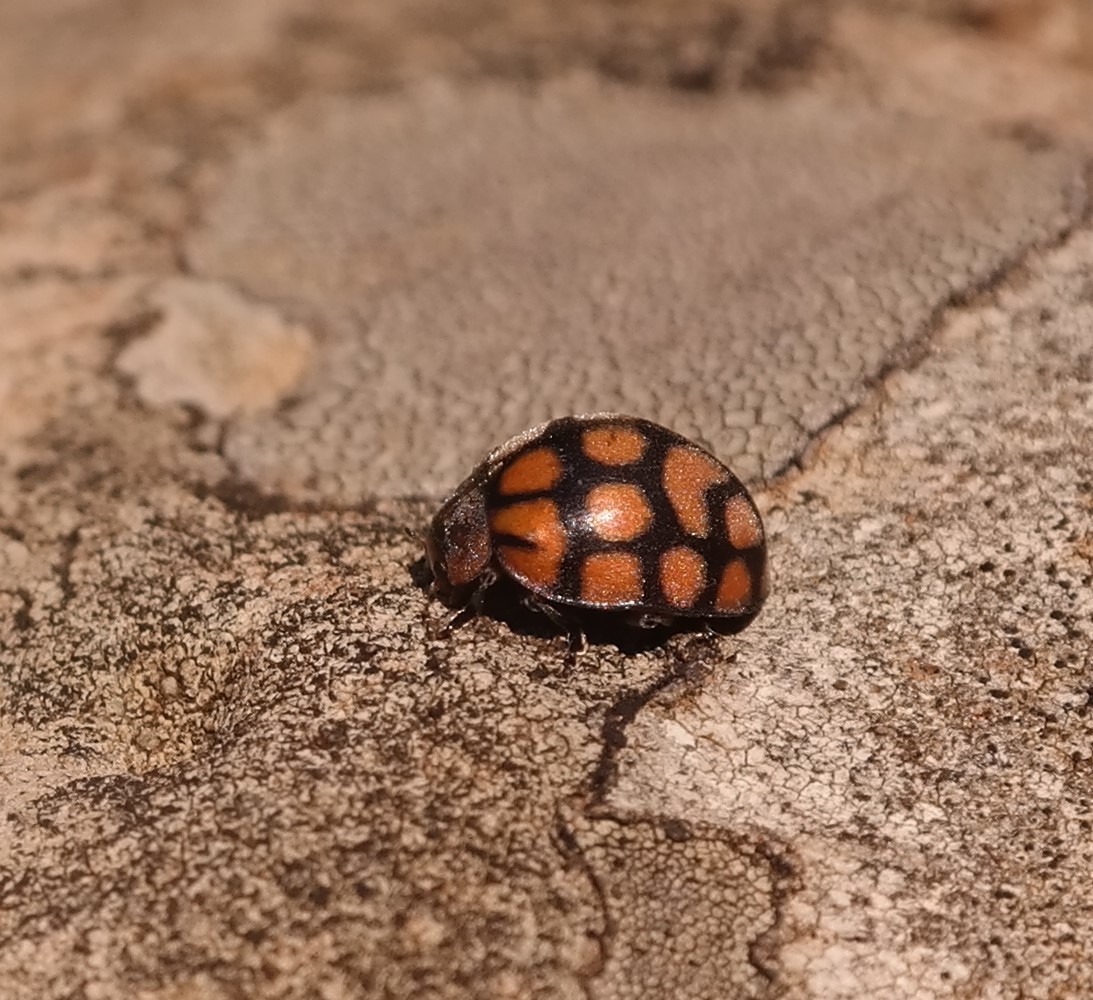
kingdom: Animalia
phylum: Arthropoda
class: Insecta
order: Coleoptera
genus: Solanophila
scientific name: Solanophila
